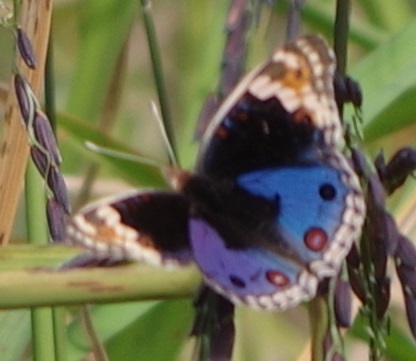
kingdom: Animalia
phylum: Arthropoda
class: Insecta
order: Lepidoptera
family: Nymphalidae
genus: Junonia
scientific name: Junonia orithya
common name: Blue pansy
